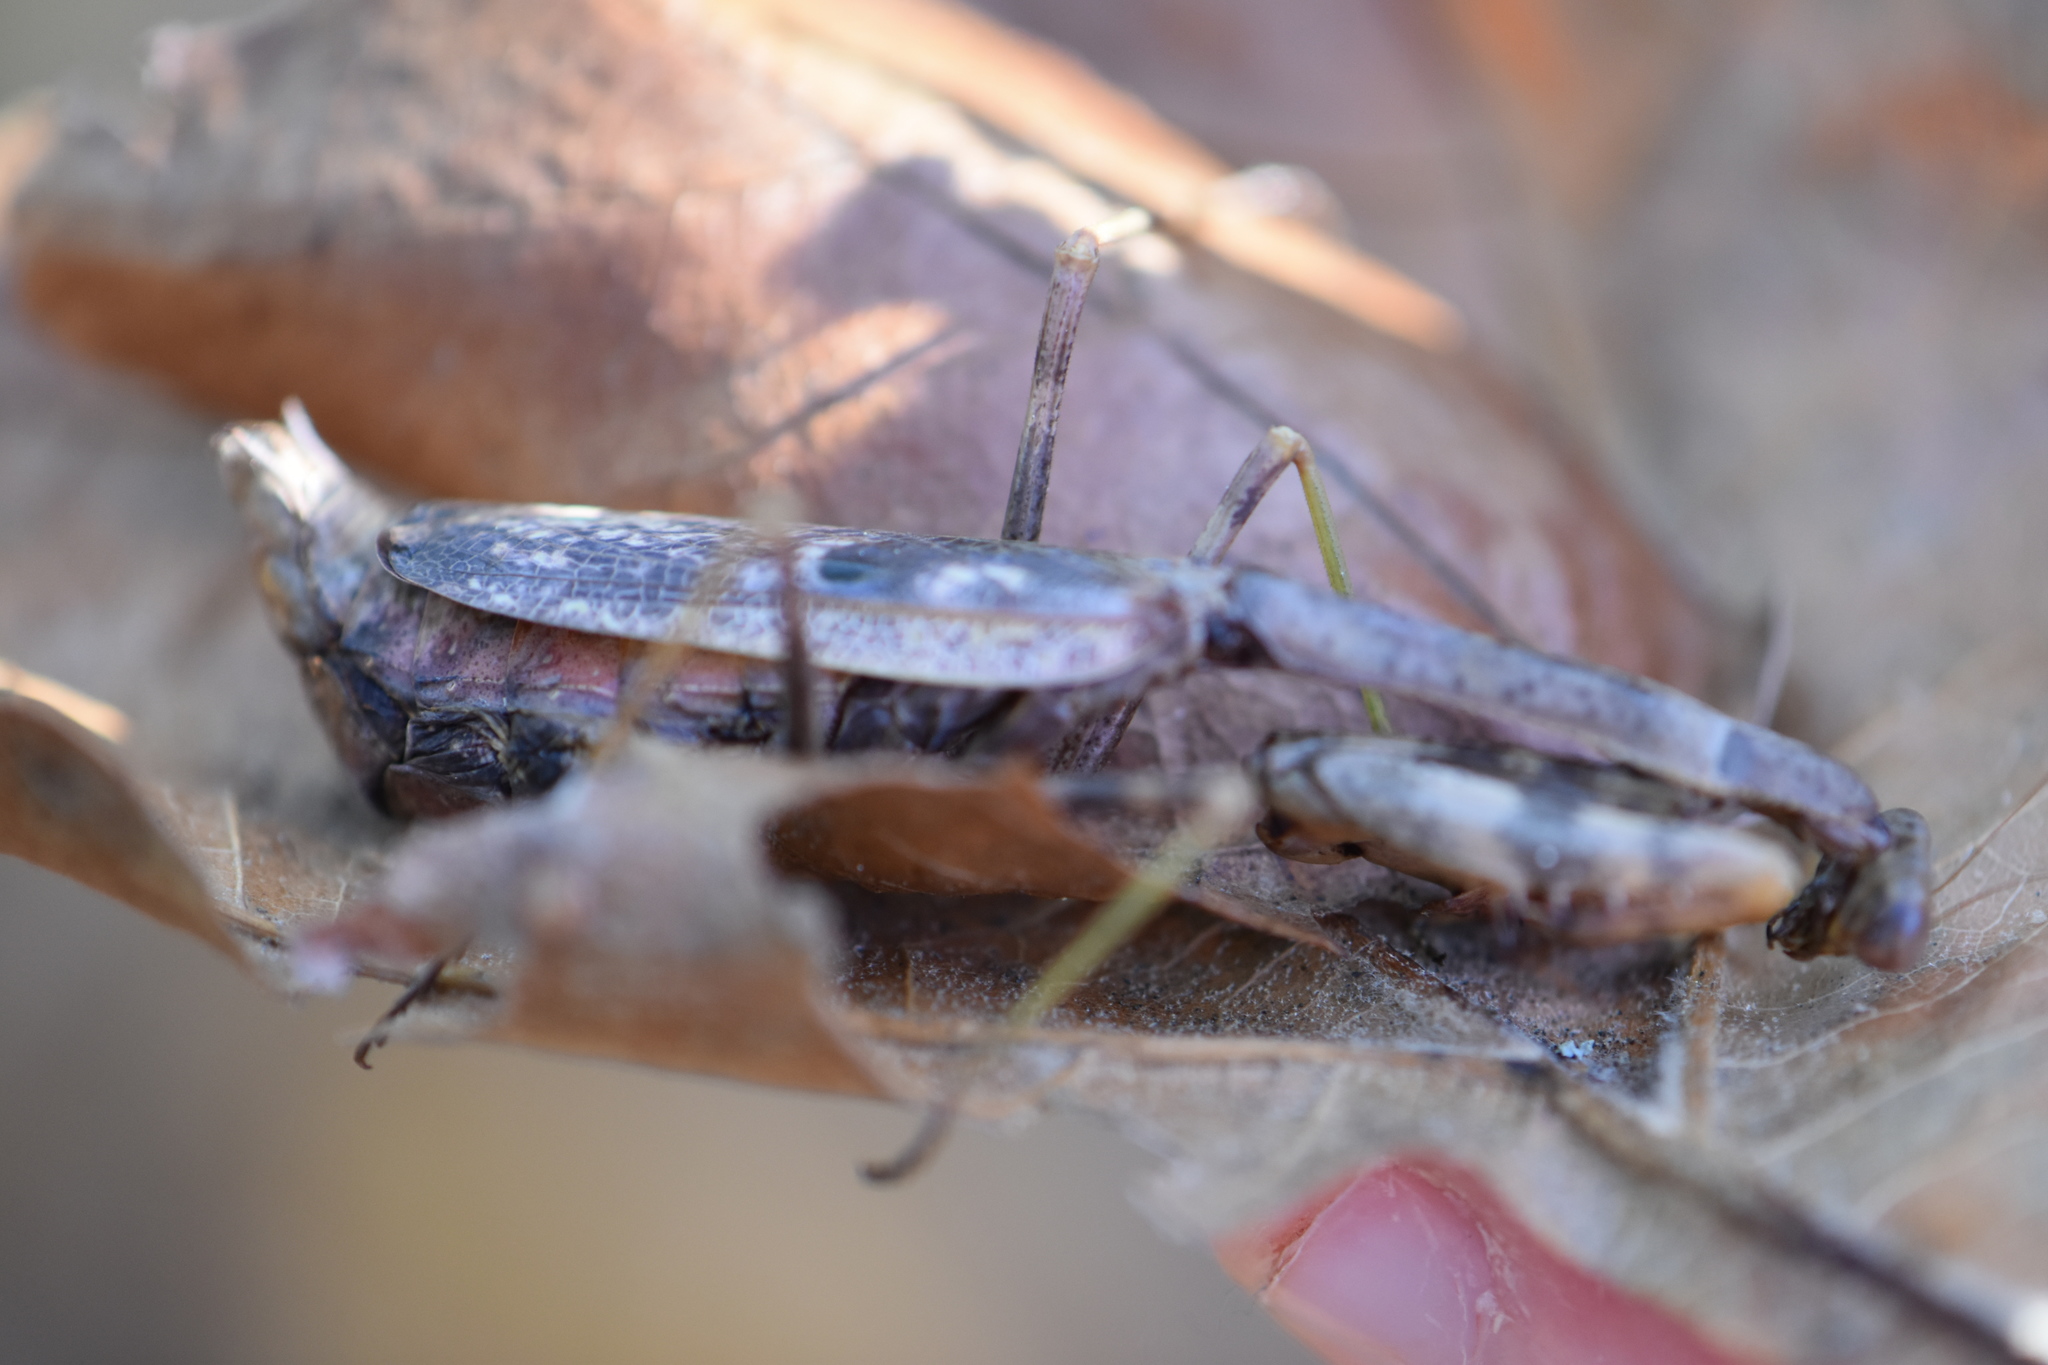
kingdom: Animalia
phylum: Arthropoda
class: Insecta
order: Mantodea
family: Mantidae
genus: Stagmomantis
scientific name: Stagmomantis carolina
